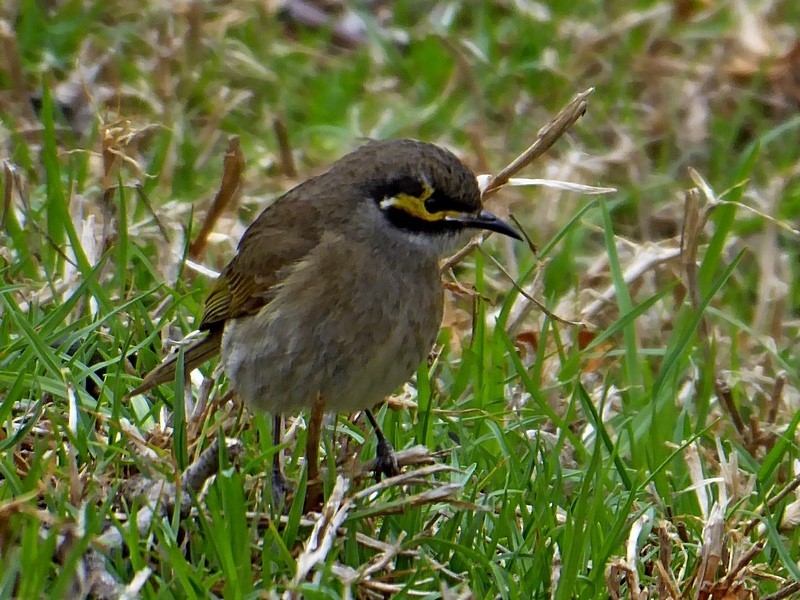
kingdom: Animalia
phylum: Chordata
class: Aves
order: Passeriformes
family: Meliphagidae
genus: Caligavis
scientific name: Caligavis chrysops
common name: Yellow-faced honeyeater
